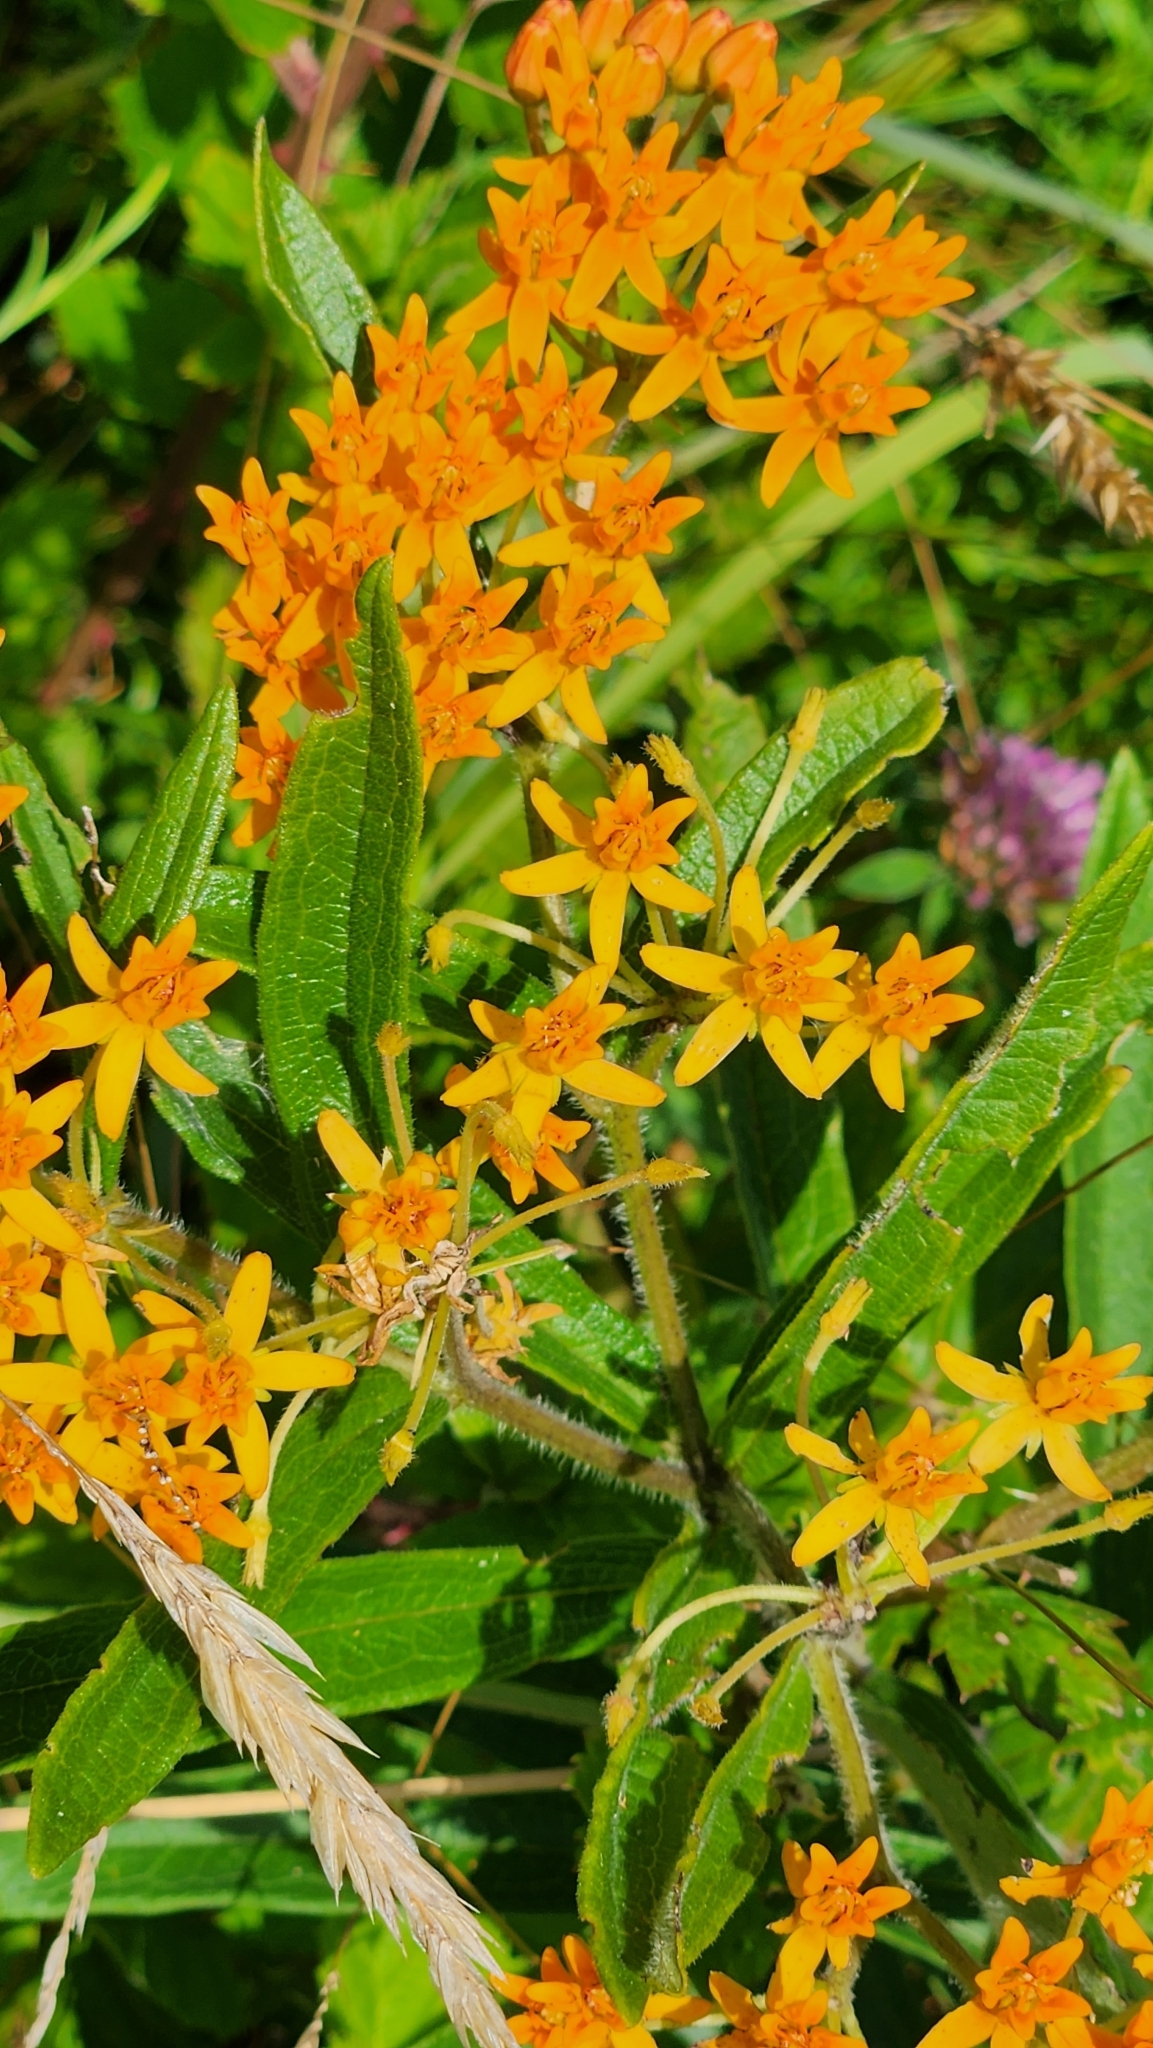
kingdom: Plantae
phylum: Tracheophyta
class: Magnoliopsida
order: Gentianales
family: Apocynaceae
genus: Asclepias
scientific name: Asclepias tuberosa
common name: Butterfly milkweed
